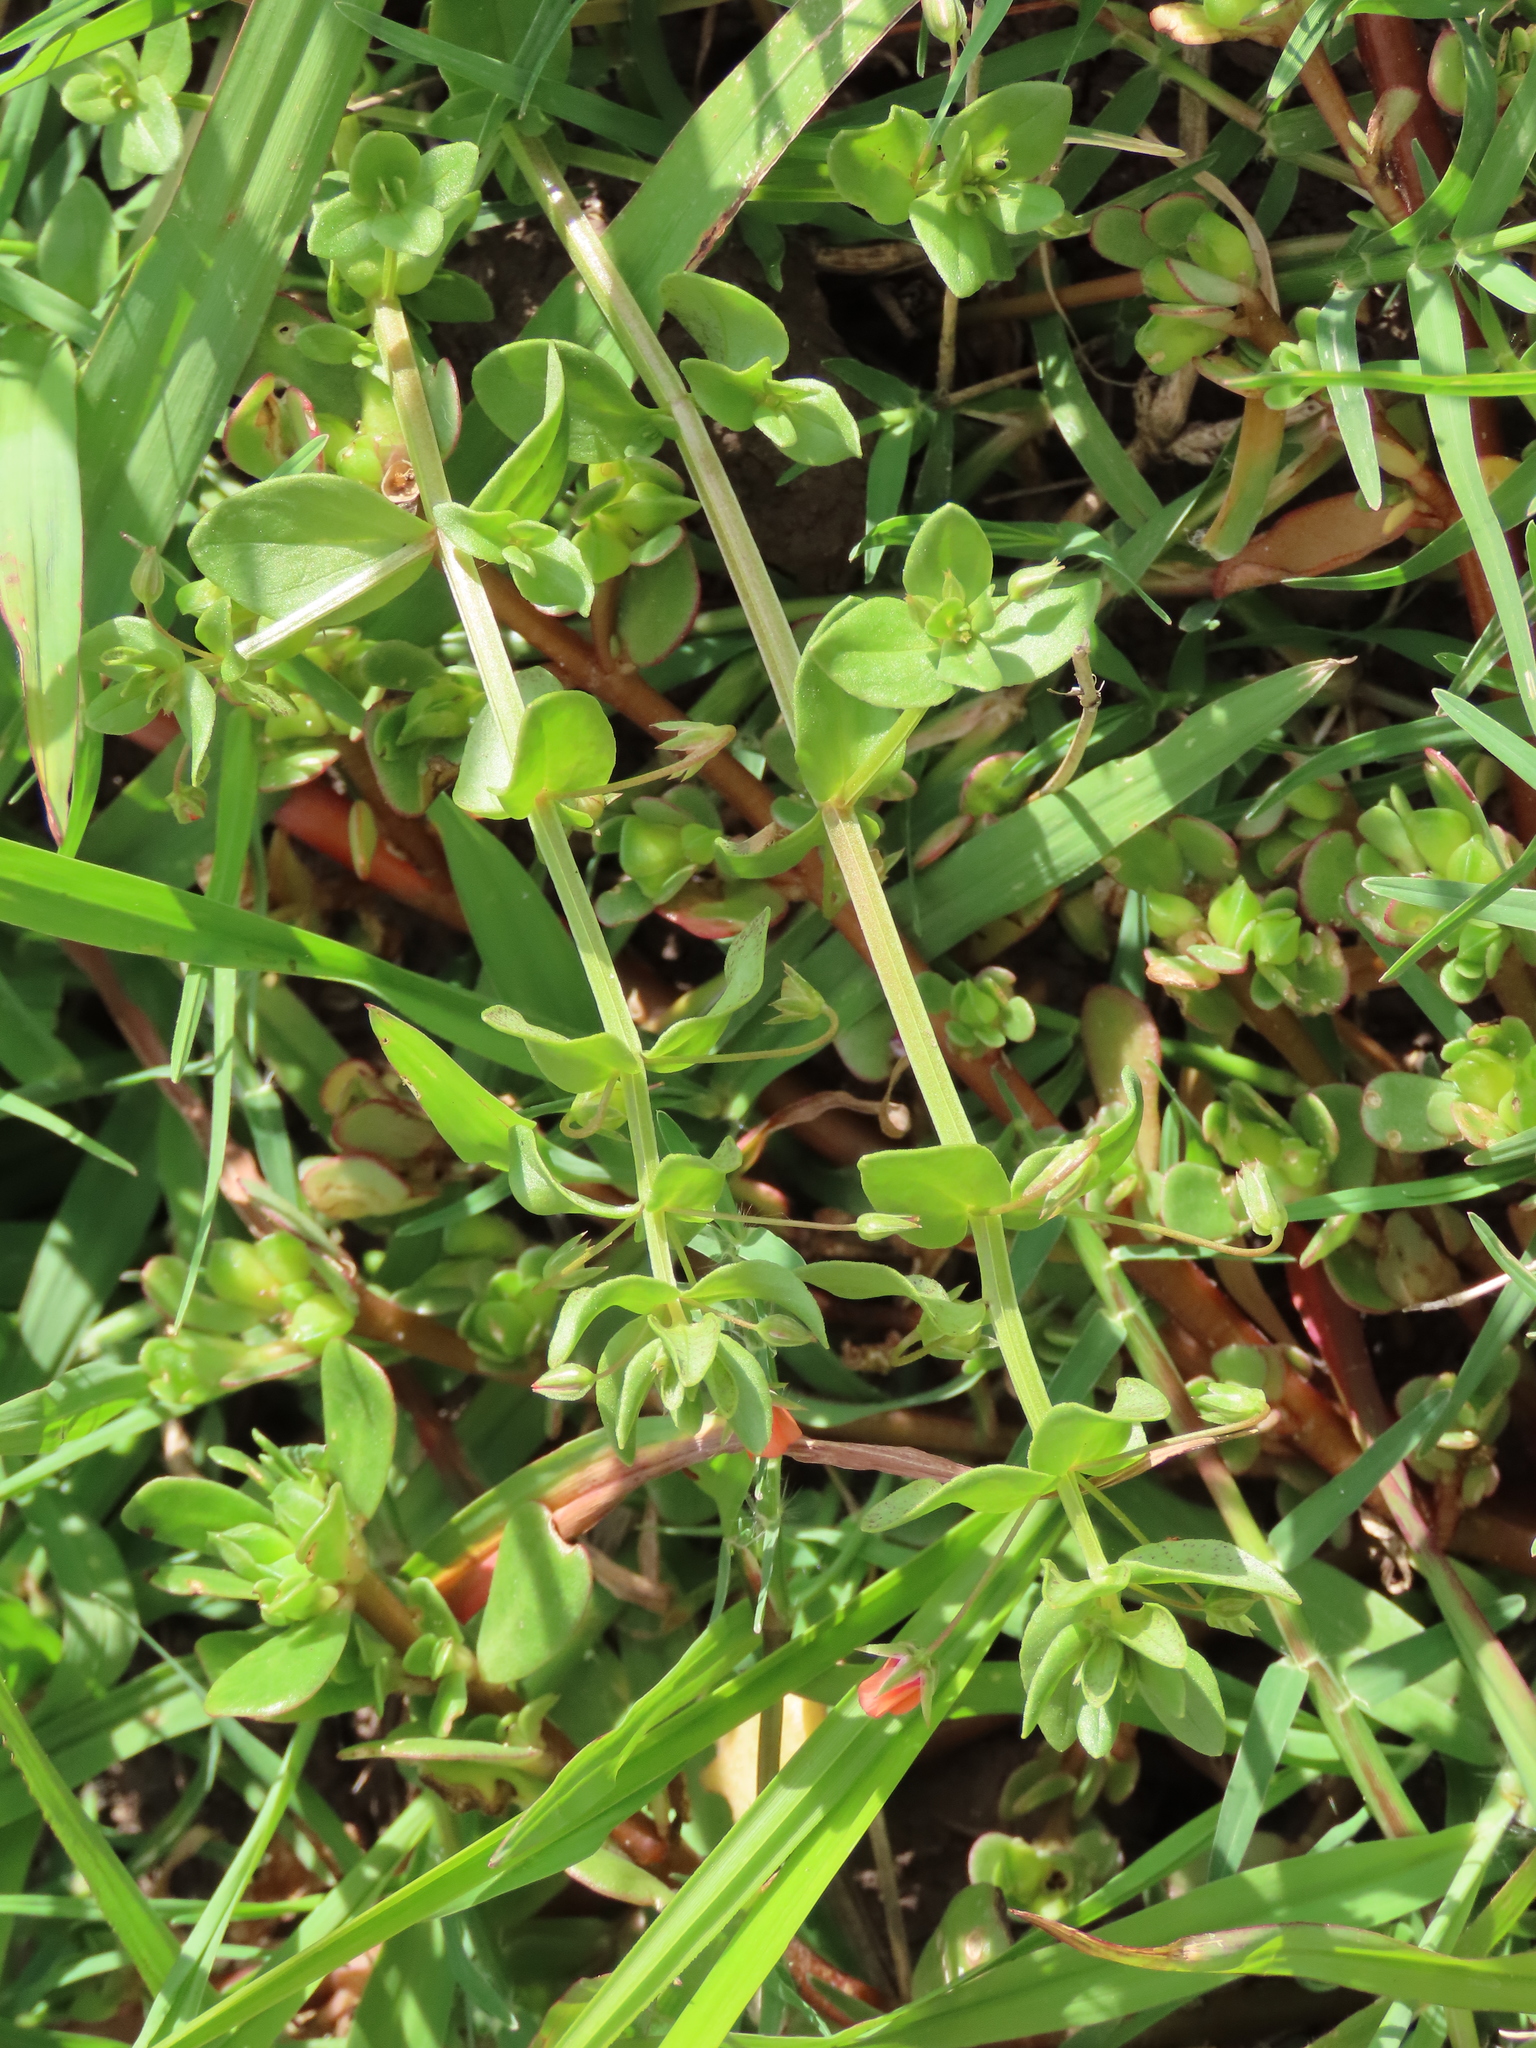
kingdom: Plantae
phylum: Tracheophyta
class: Magnoliopsida
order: Ericales
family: Primulaceae
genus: Lysimachia
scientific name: Lysimachia arvensis
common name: Scarlet pimpernel
